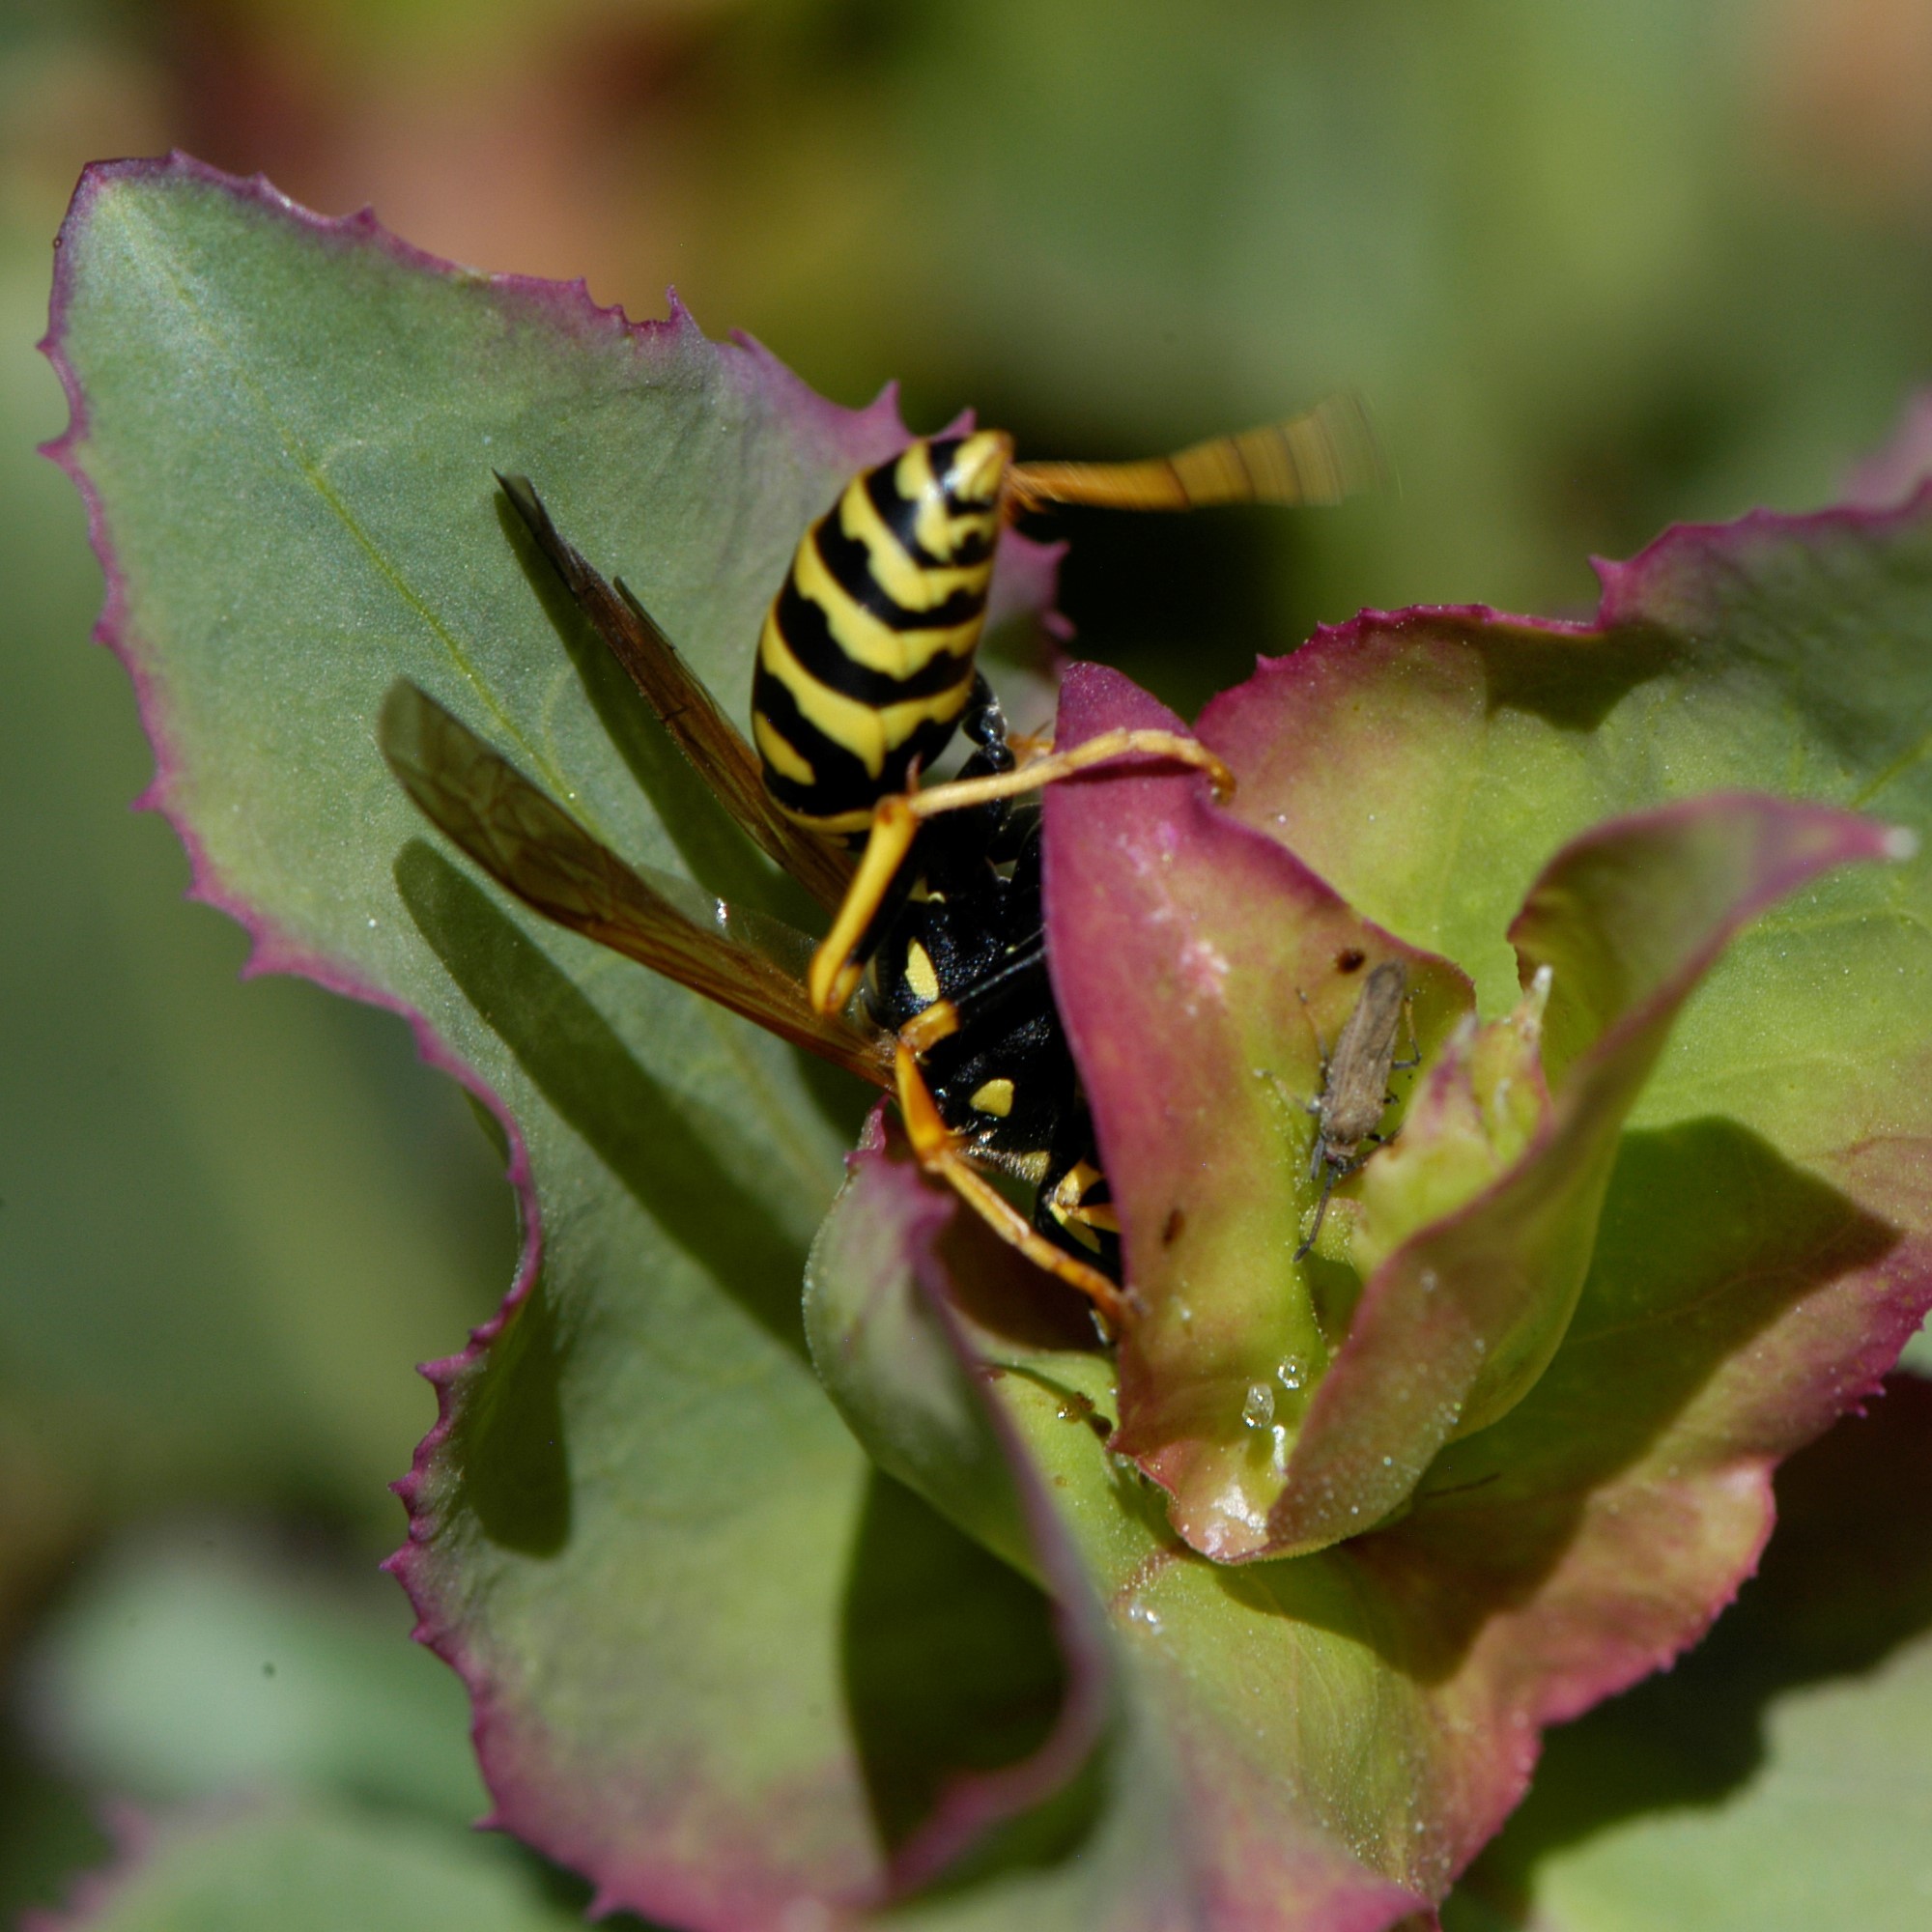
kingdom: Animalia
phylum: Arthropoda
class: Insecta
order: Hymenoptera
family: Eumenidae
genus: Polistes
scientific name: Polistes dominula
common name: Paper wasp
